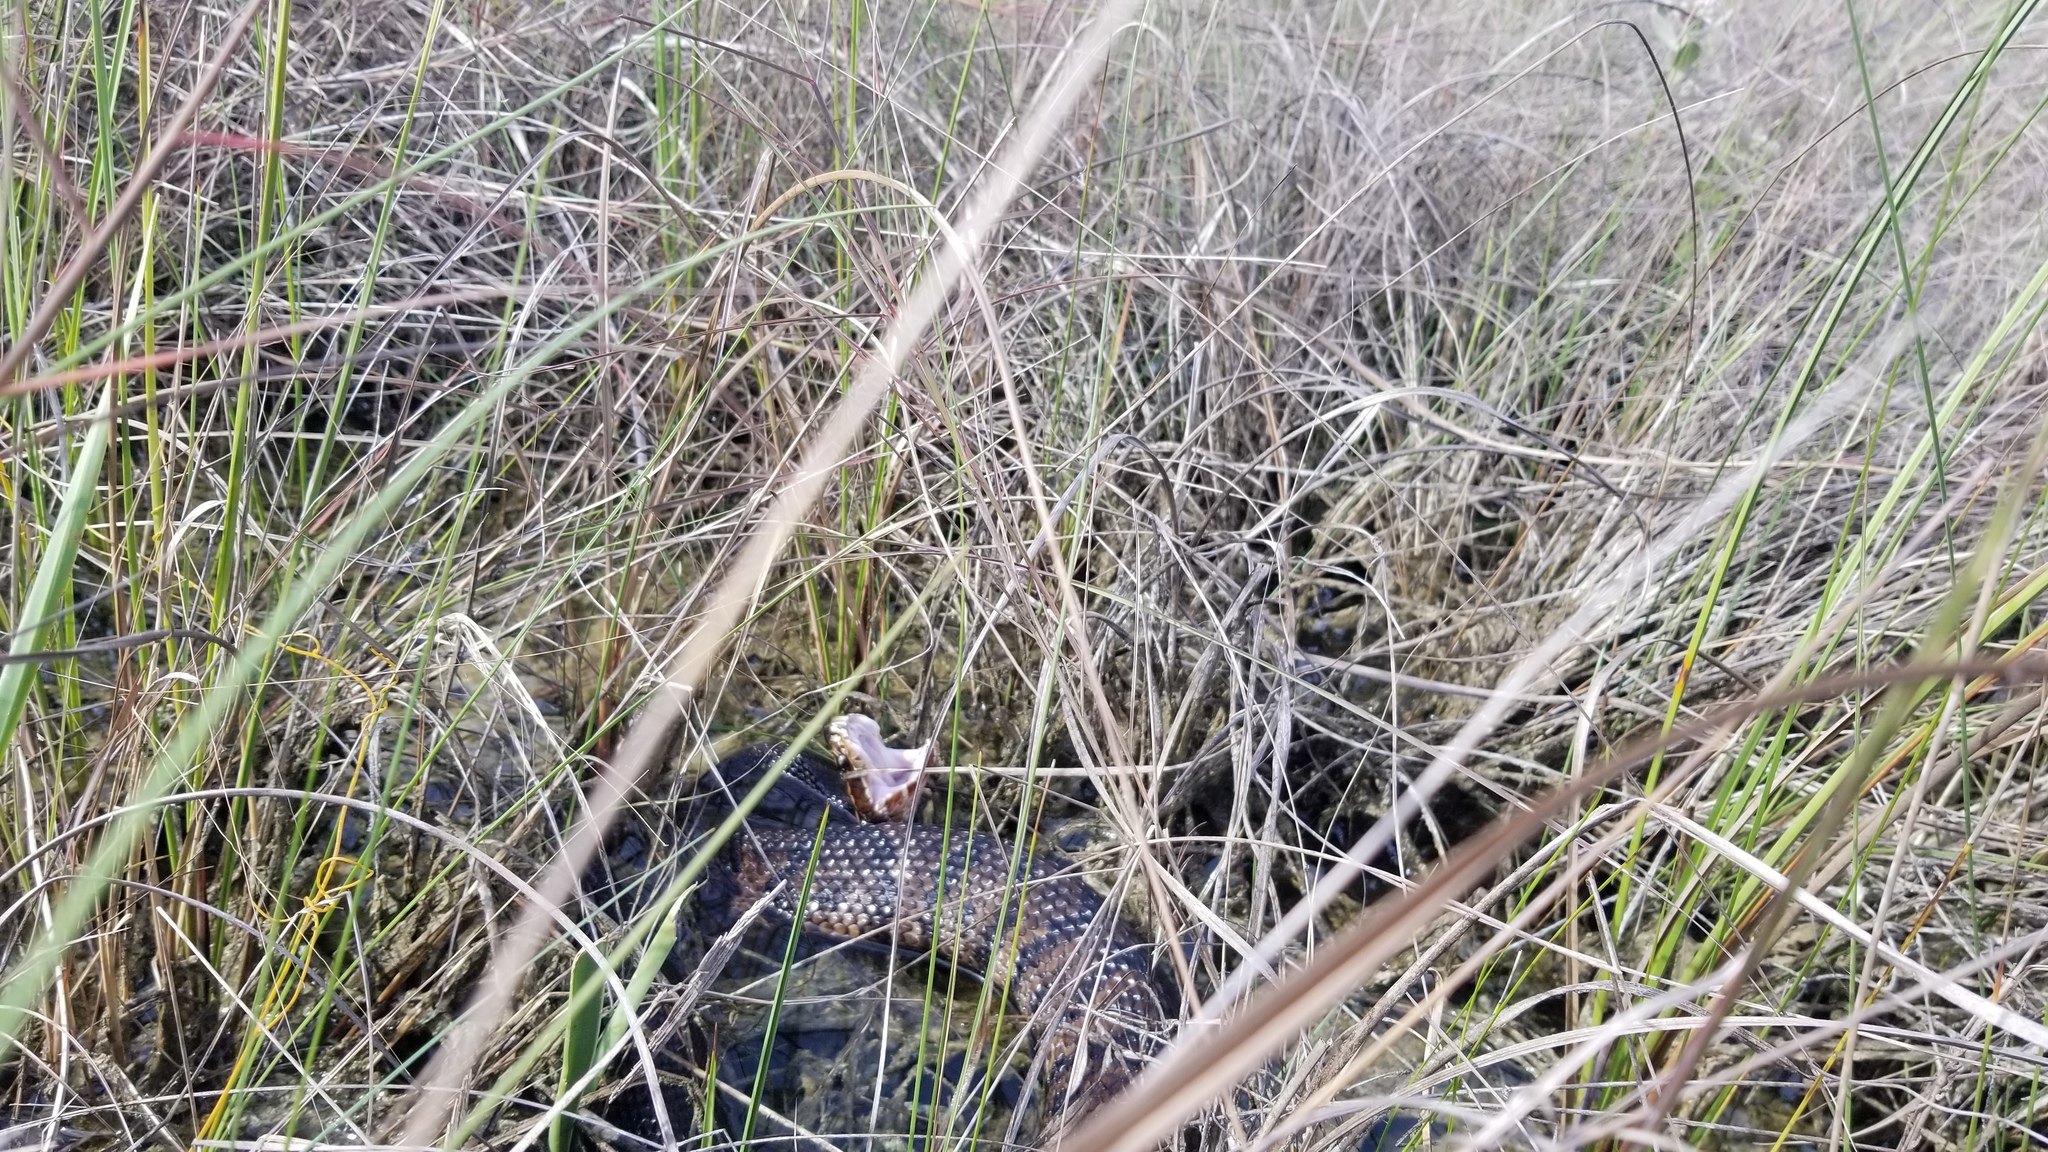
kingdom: Animalia
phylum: Chordata
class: Squamata
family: Viperidae
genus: Agkistrodon
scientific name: Agkistrodon conanti
